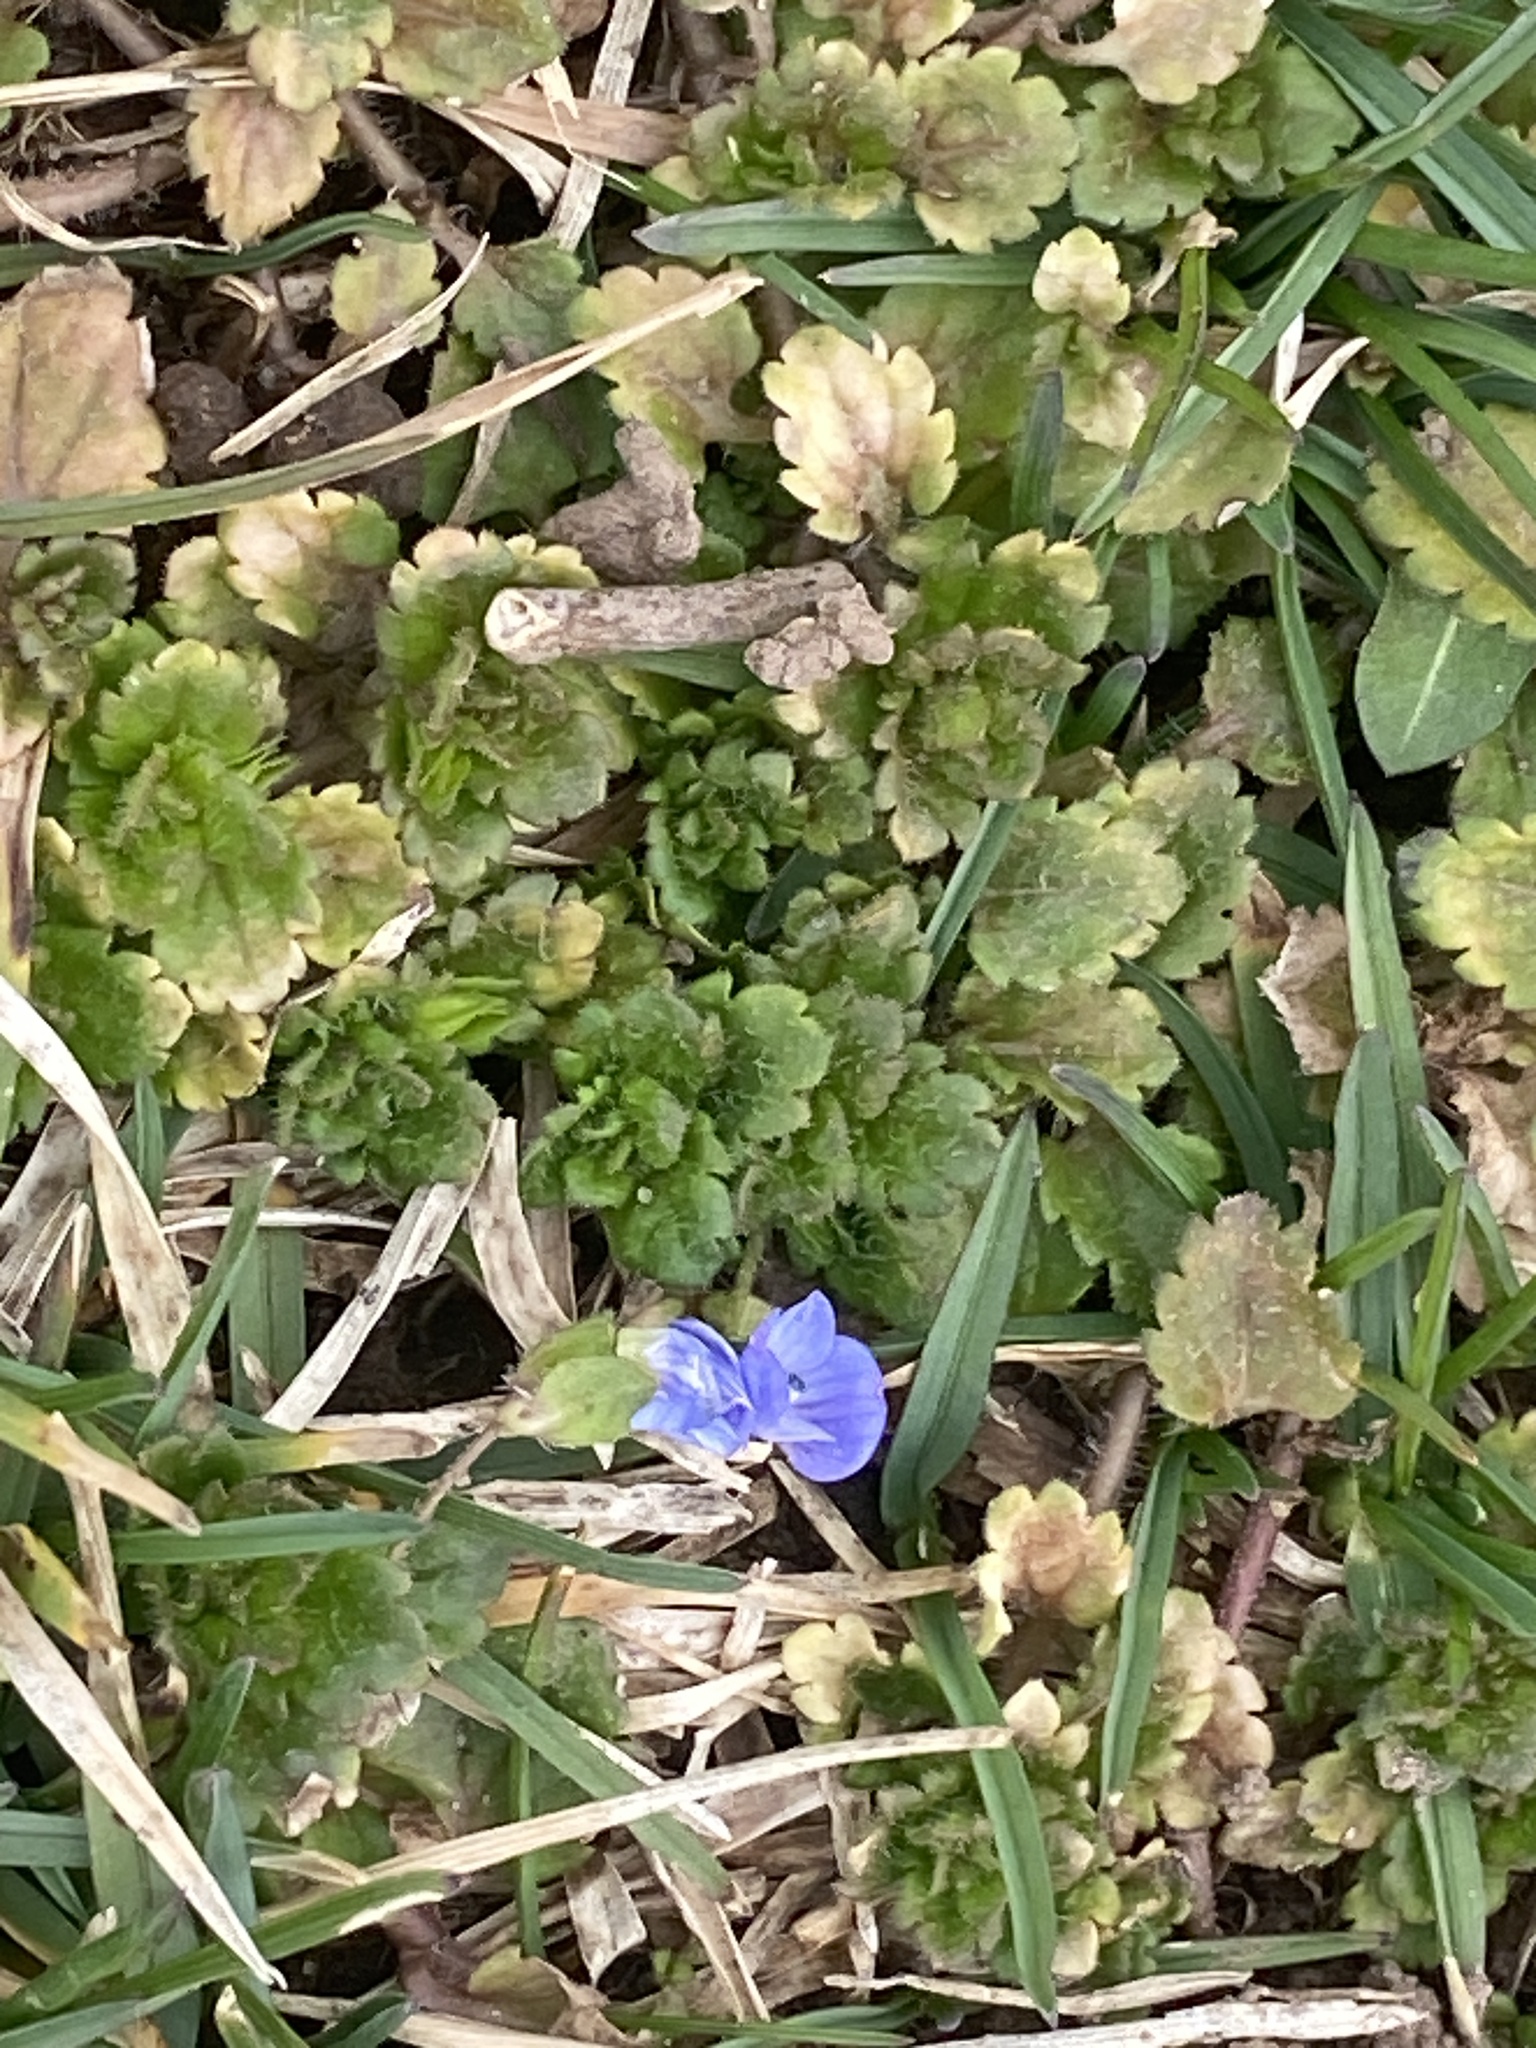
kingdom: Plantae
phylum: Tracheophyta
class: Magnoliopsida
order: Lamiales
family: Plantaginaceae
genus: Veronica
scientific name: Veronica persica
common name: Common field-speedwell
